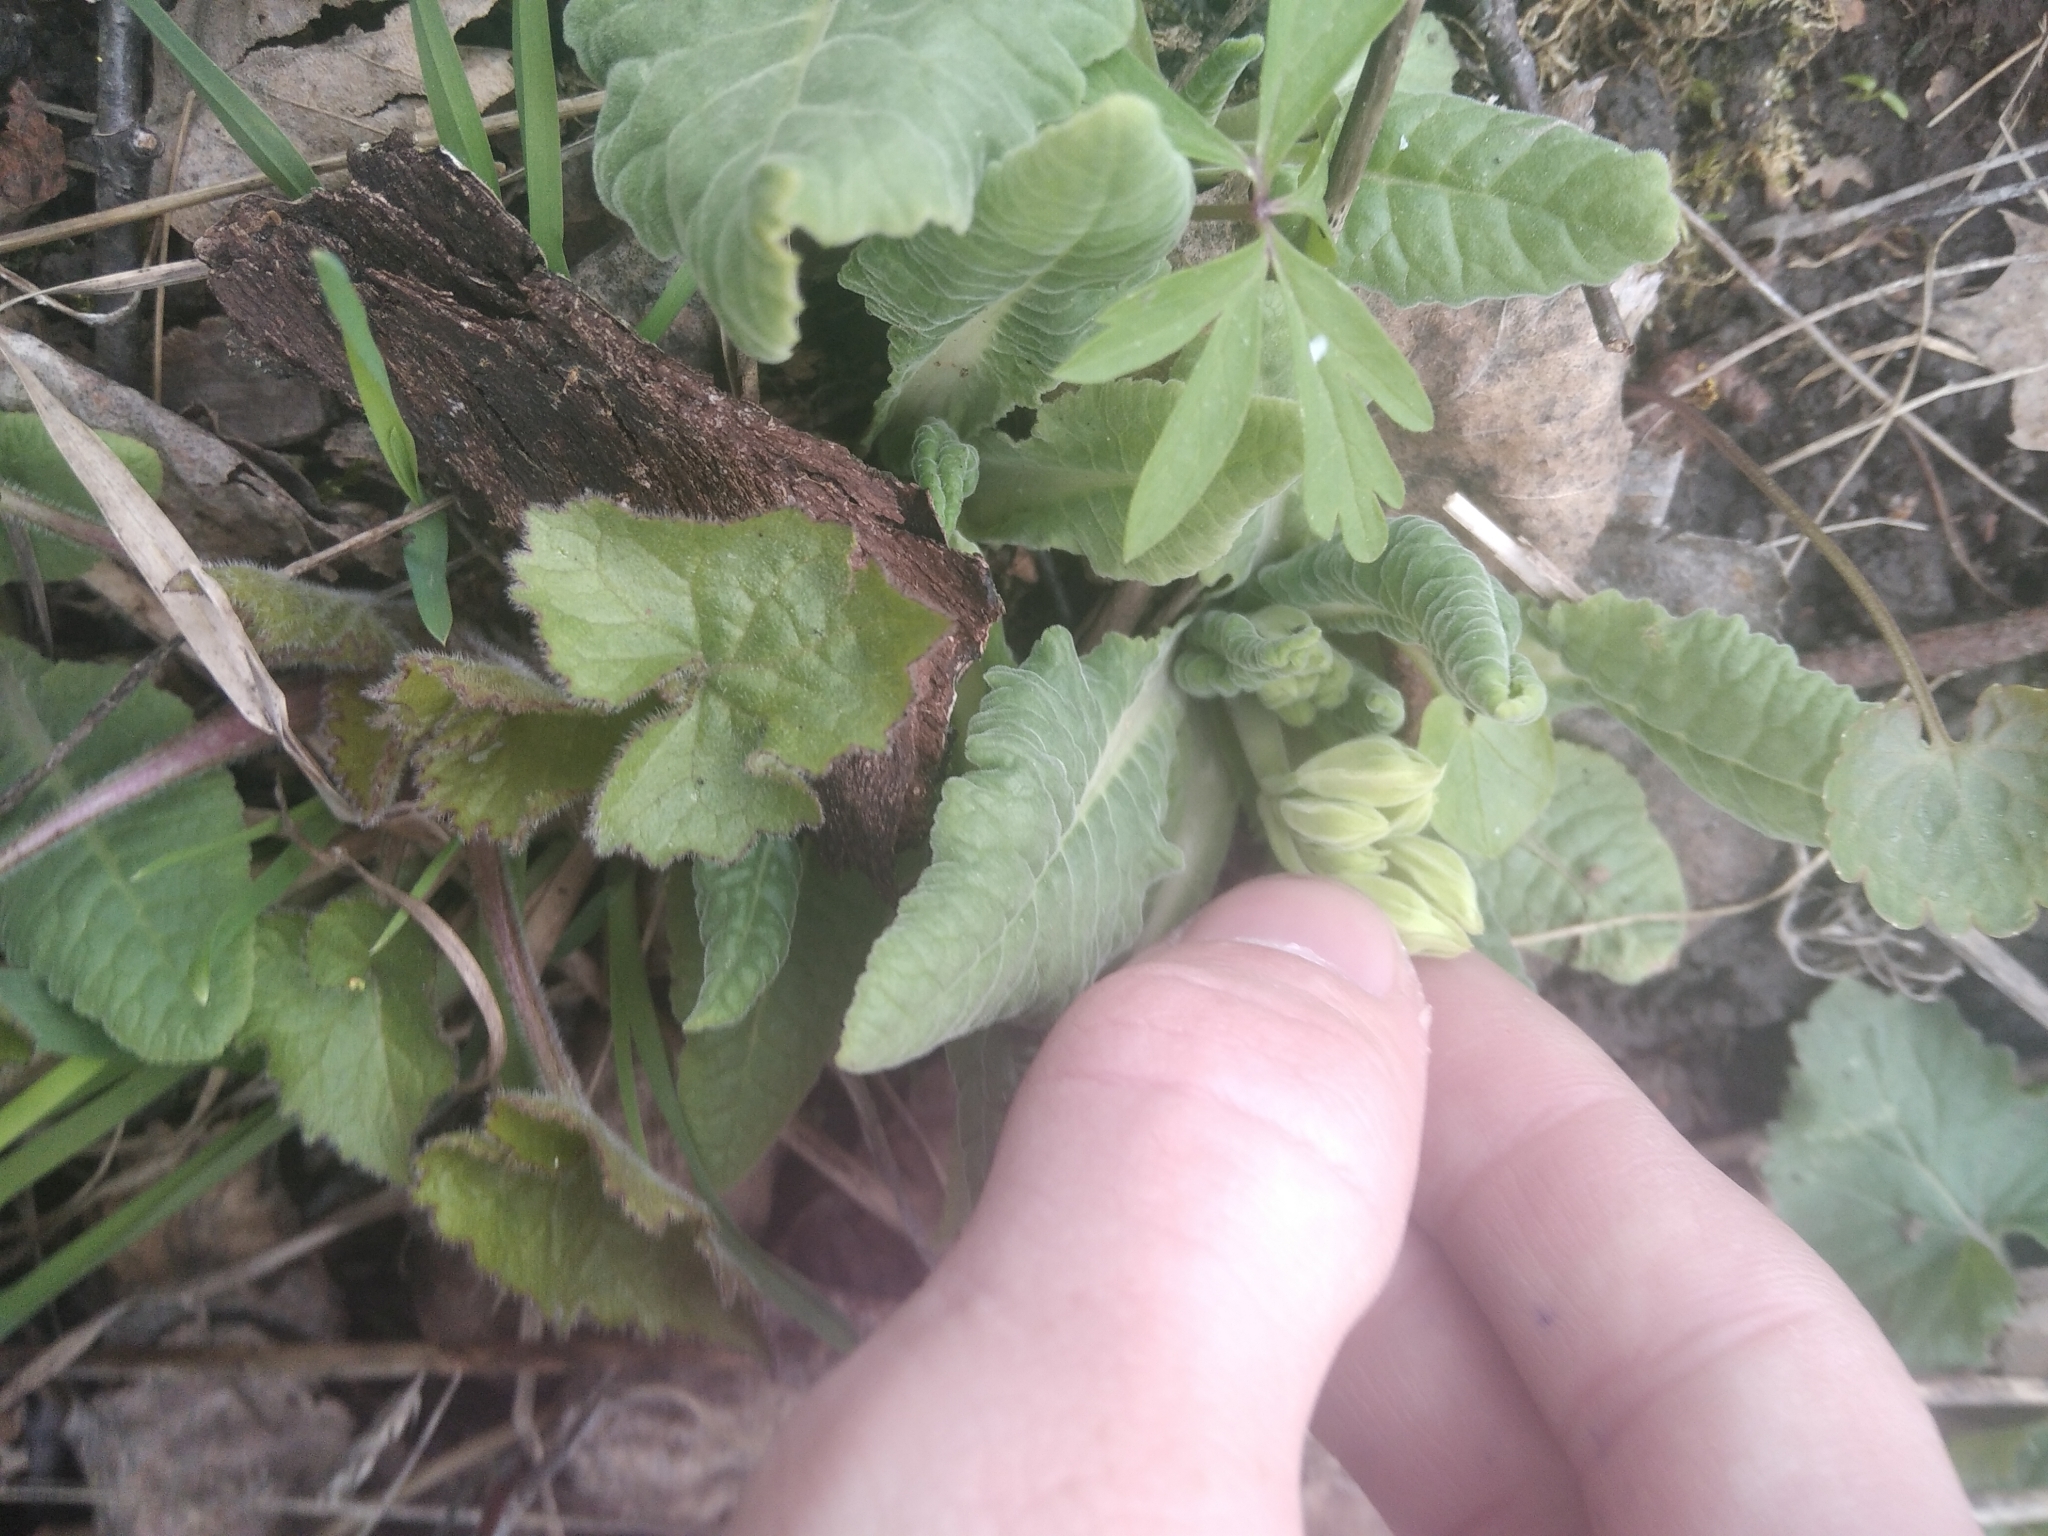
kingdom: Plantae
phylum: Tracheophyta
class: Magnoliopsida
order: Ericales
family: Primulaceae
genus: Primula
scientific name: Primula veris
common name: Cowslip
